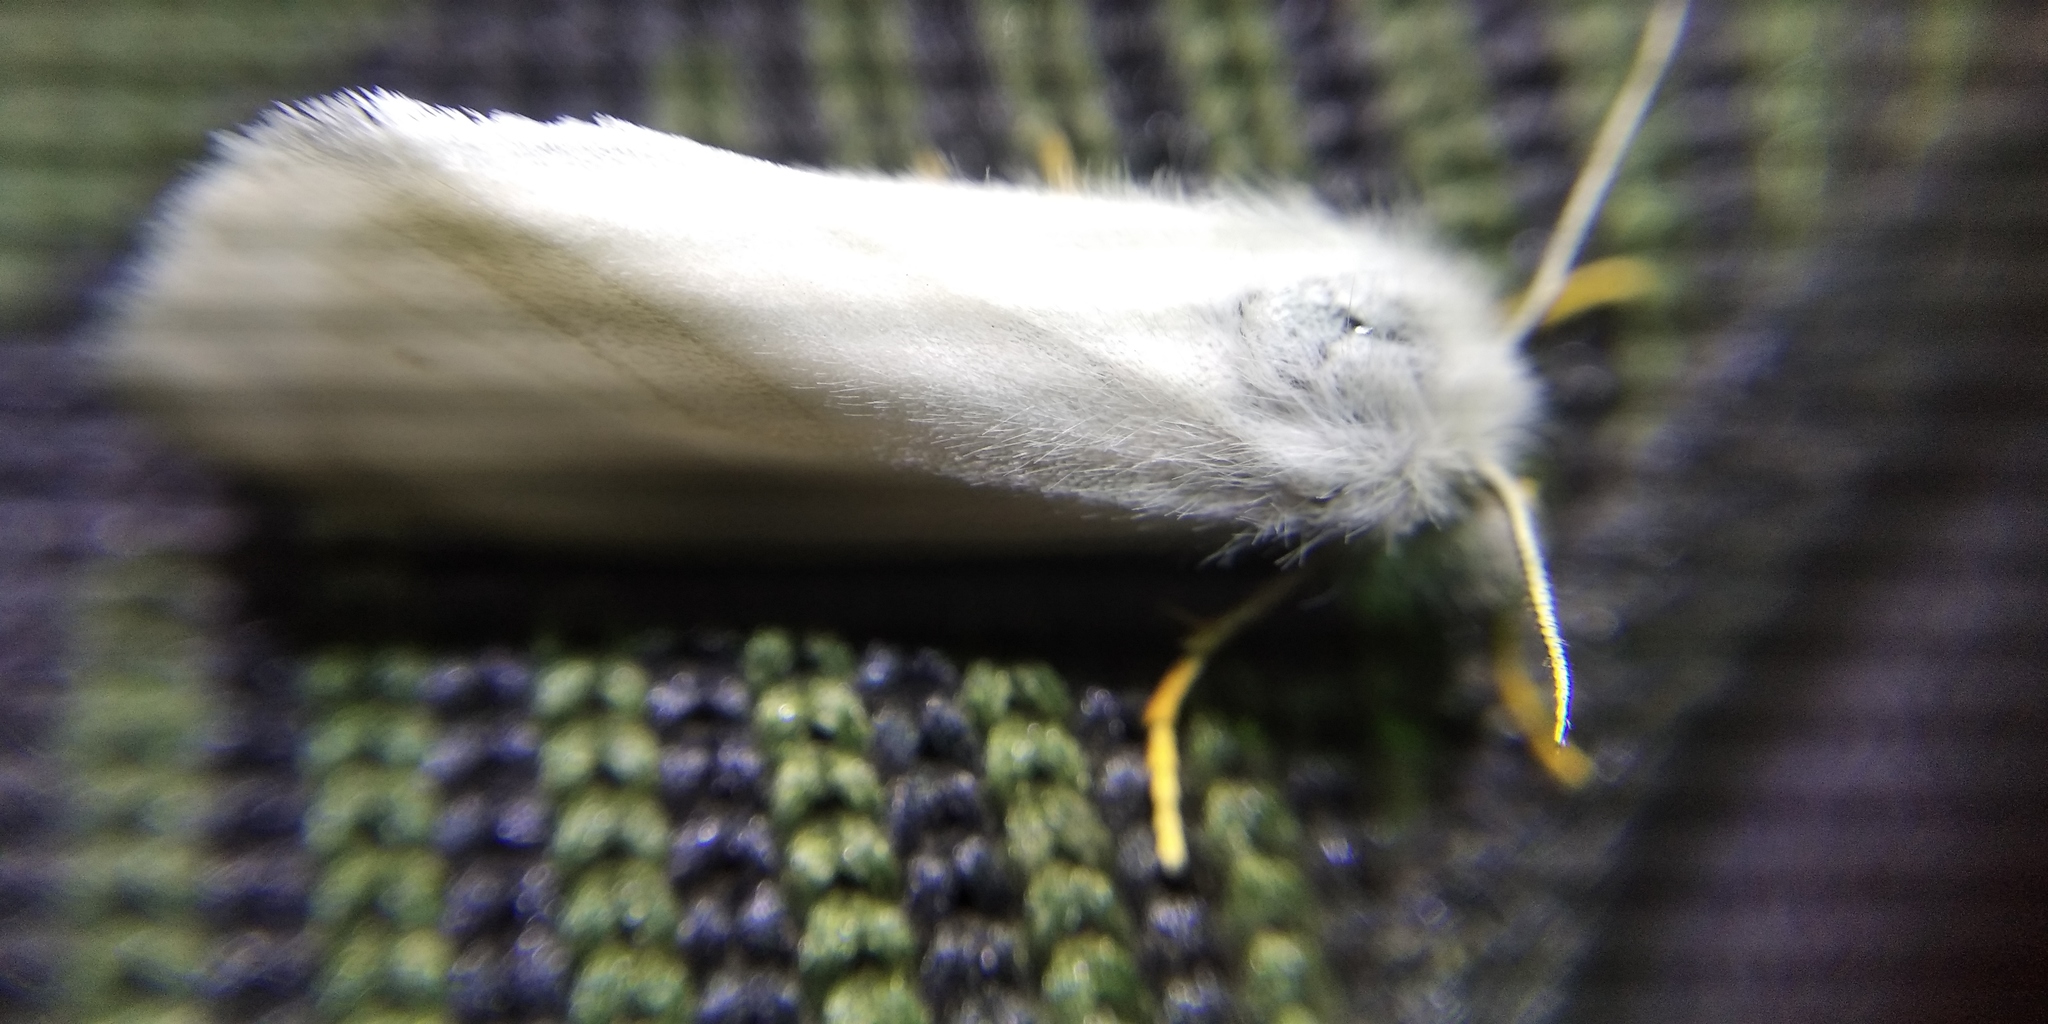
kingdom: Animalia
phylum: Arthropoda
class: Insecta
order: Lepidoptera
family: Erebidae
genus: Laelia
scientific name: Laelia coenosa
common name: Reed tussock
